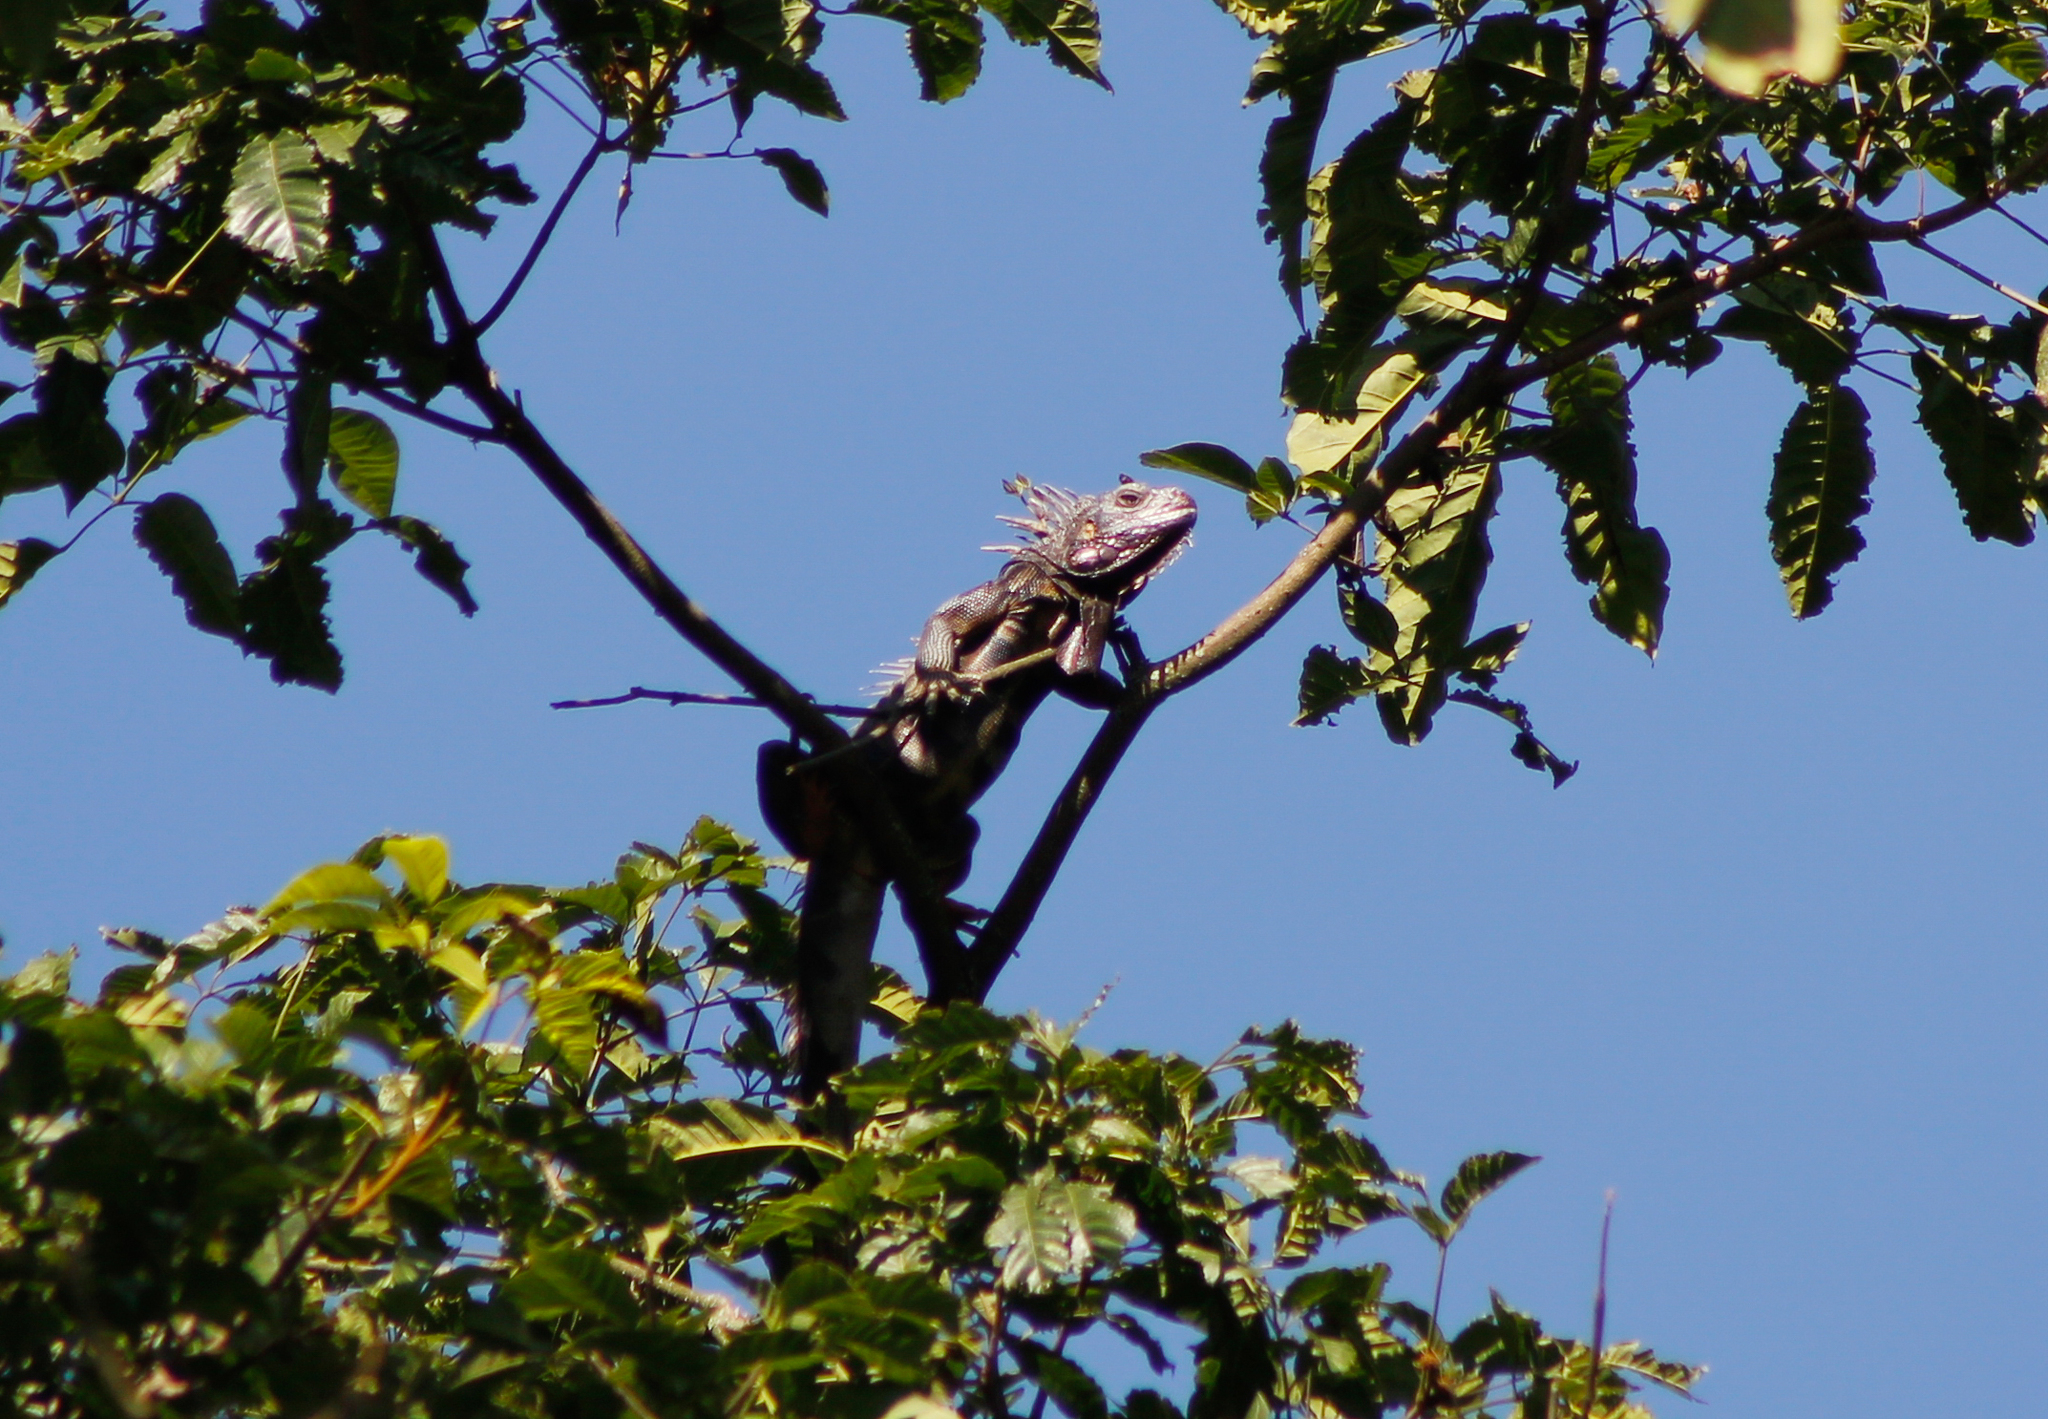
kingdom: Animalia
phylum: Chordata
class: Squamata
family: Iguanidae
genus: Iguana
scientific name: Iguana iguana
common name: Green iguana
